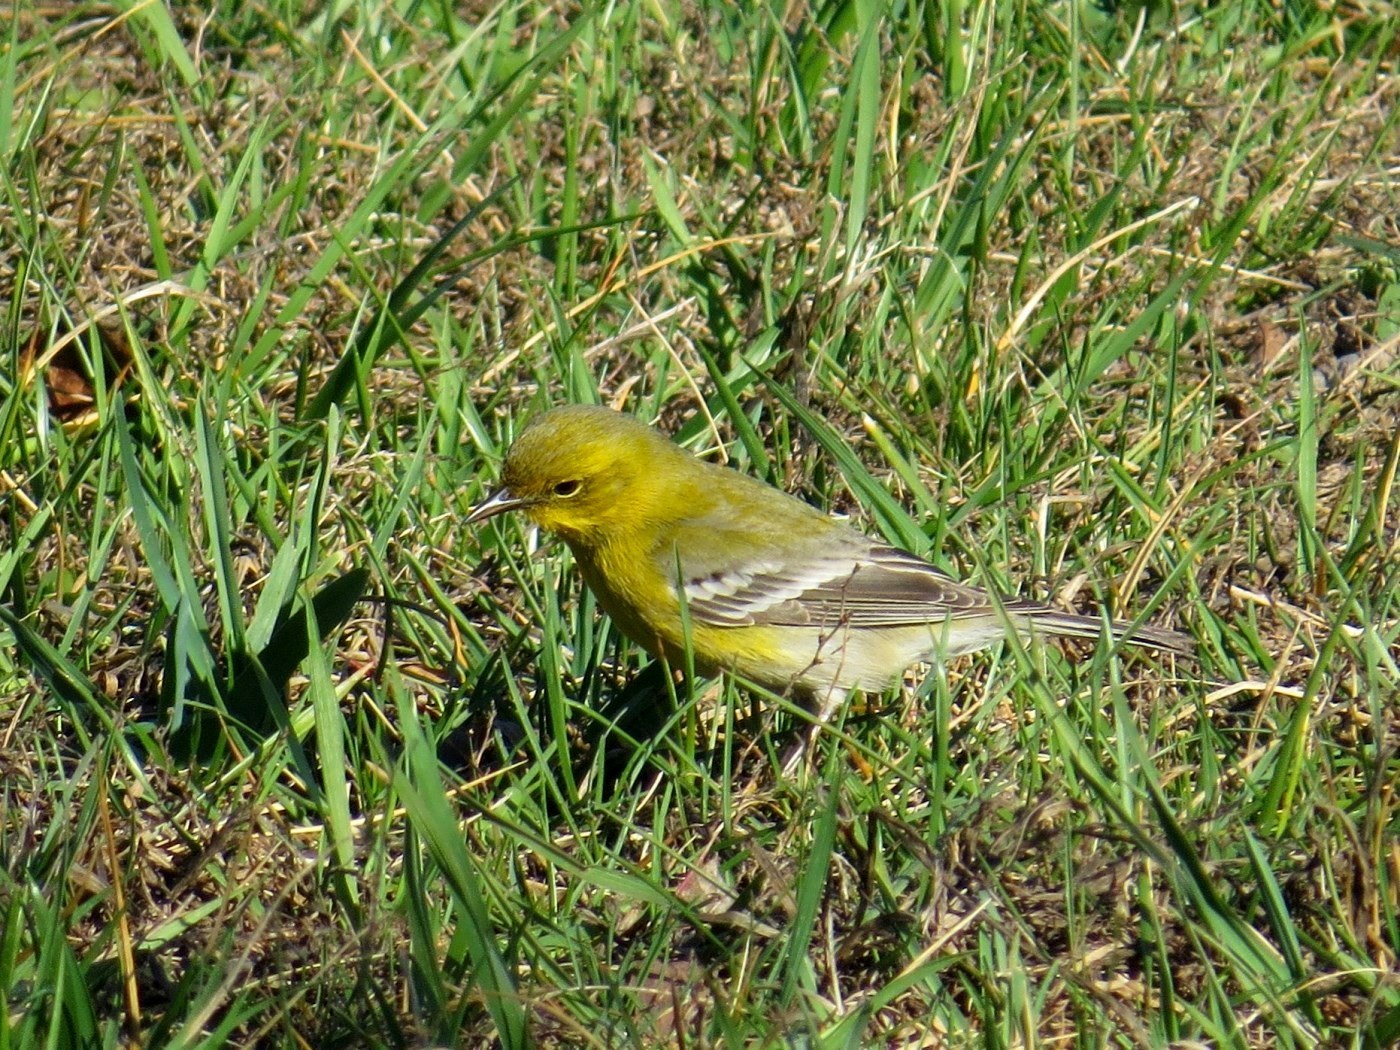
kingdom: Animalia
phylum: Chordata
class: Aves
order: Passeriformes
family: Parulidae
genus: Setophaga
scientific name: Setophaga pinus
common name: Pine warbler
